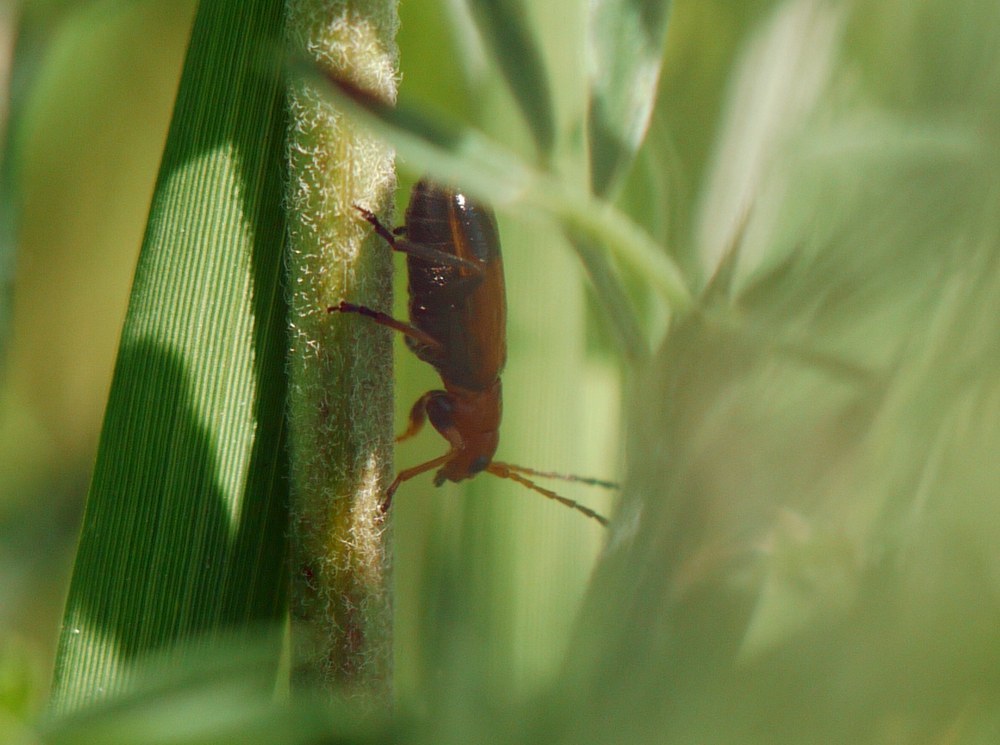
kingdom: Animalia
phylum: Arthropoda
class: Insecta
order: Coleoptera
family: Chrysomelidae
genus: Phyllobrotica
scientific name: Phyllobrotica adusta
